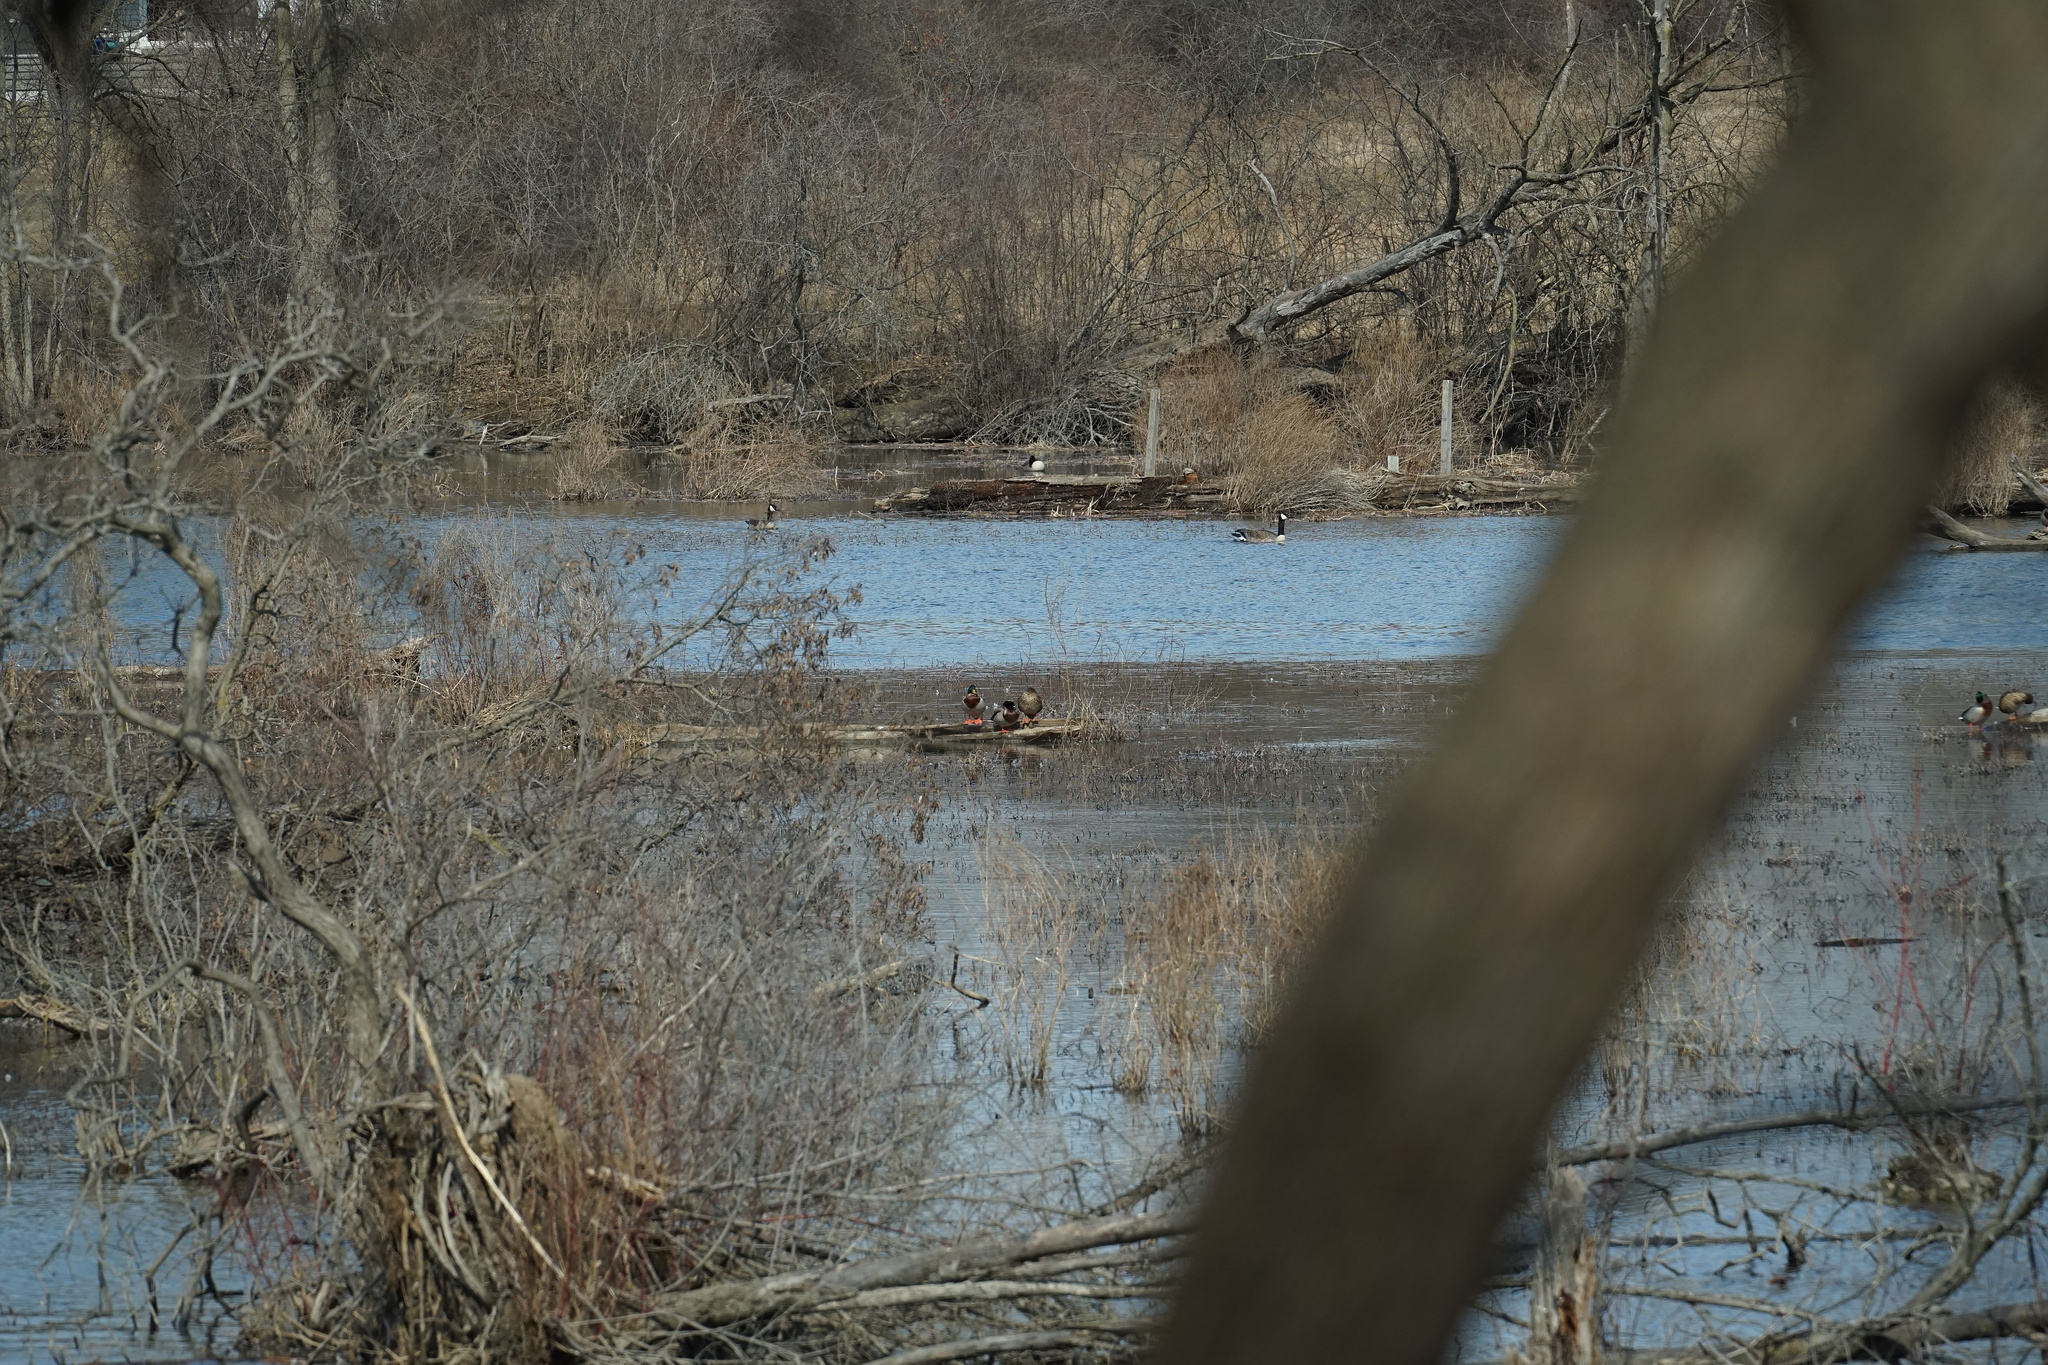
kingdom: Animalia
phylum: Chordata
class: Aves
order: Anseriformes
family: Anatidae
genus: Anas
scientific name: Anas platyrhynchos
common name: Mallard
